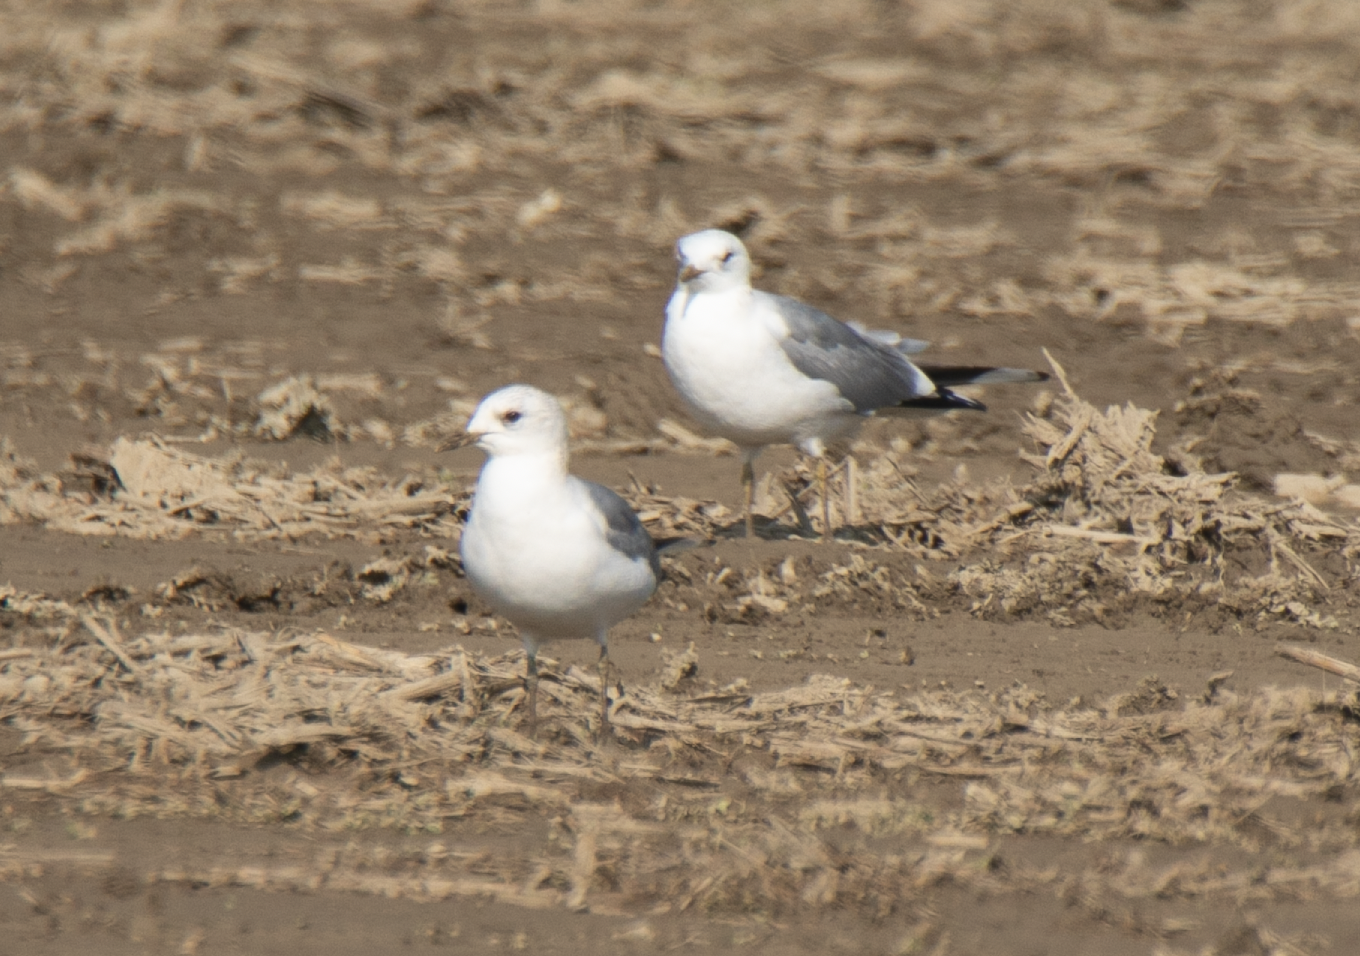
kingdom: Animalia
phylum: Chordata
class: Aves
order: Charadriiformes
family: Laridae
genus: Larus
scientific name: Larus canus
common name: Mew gull
